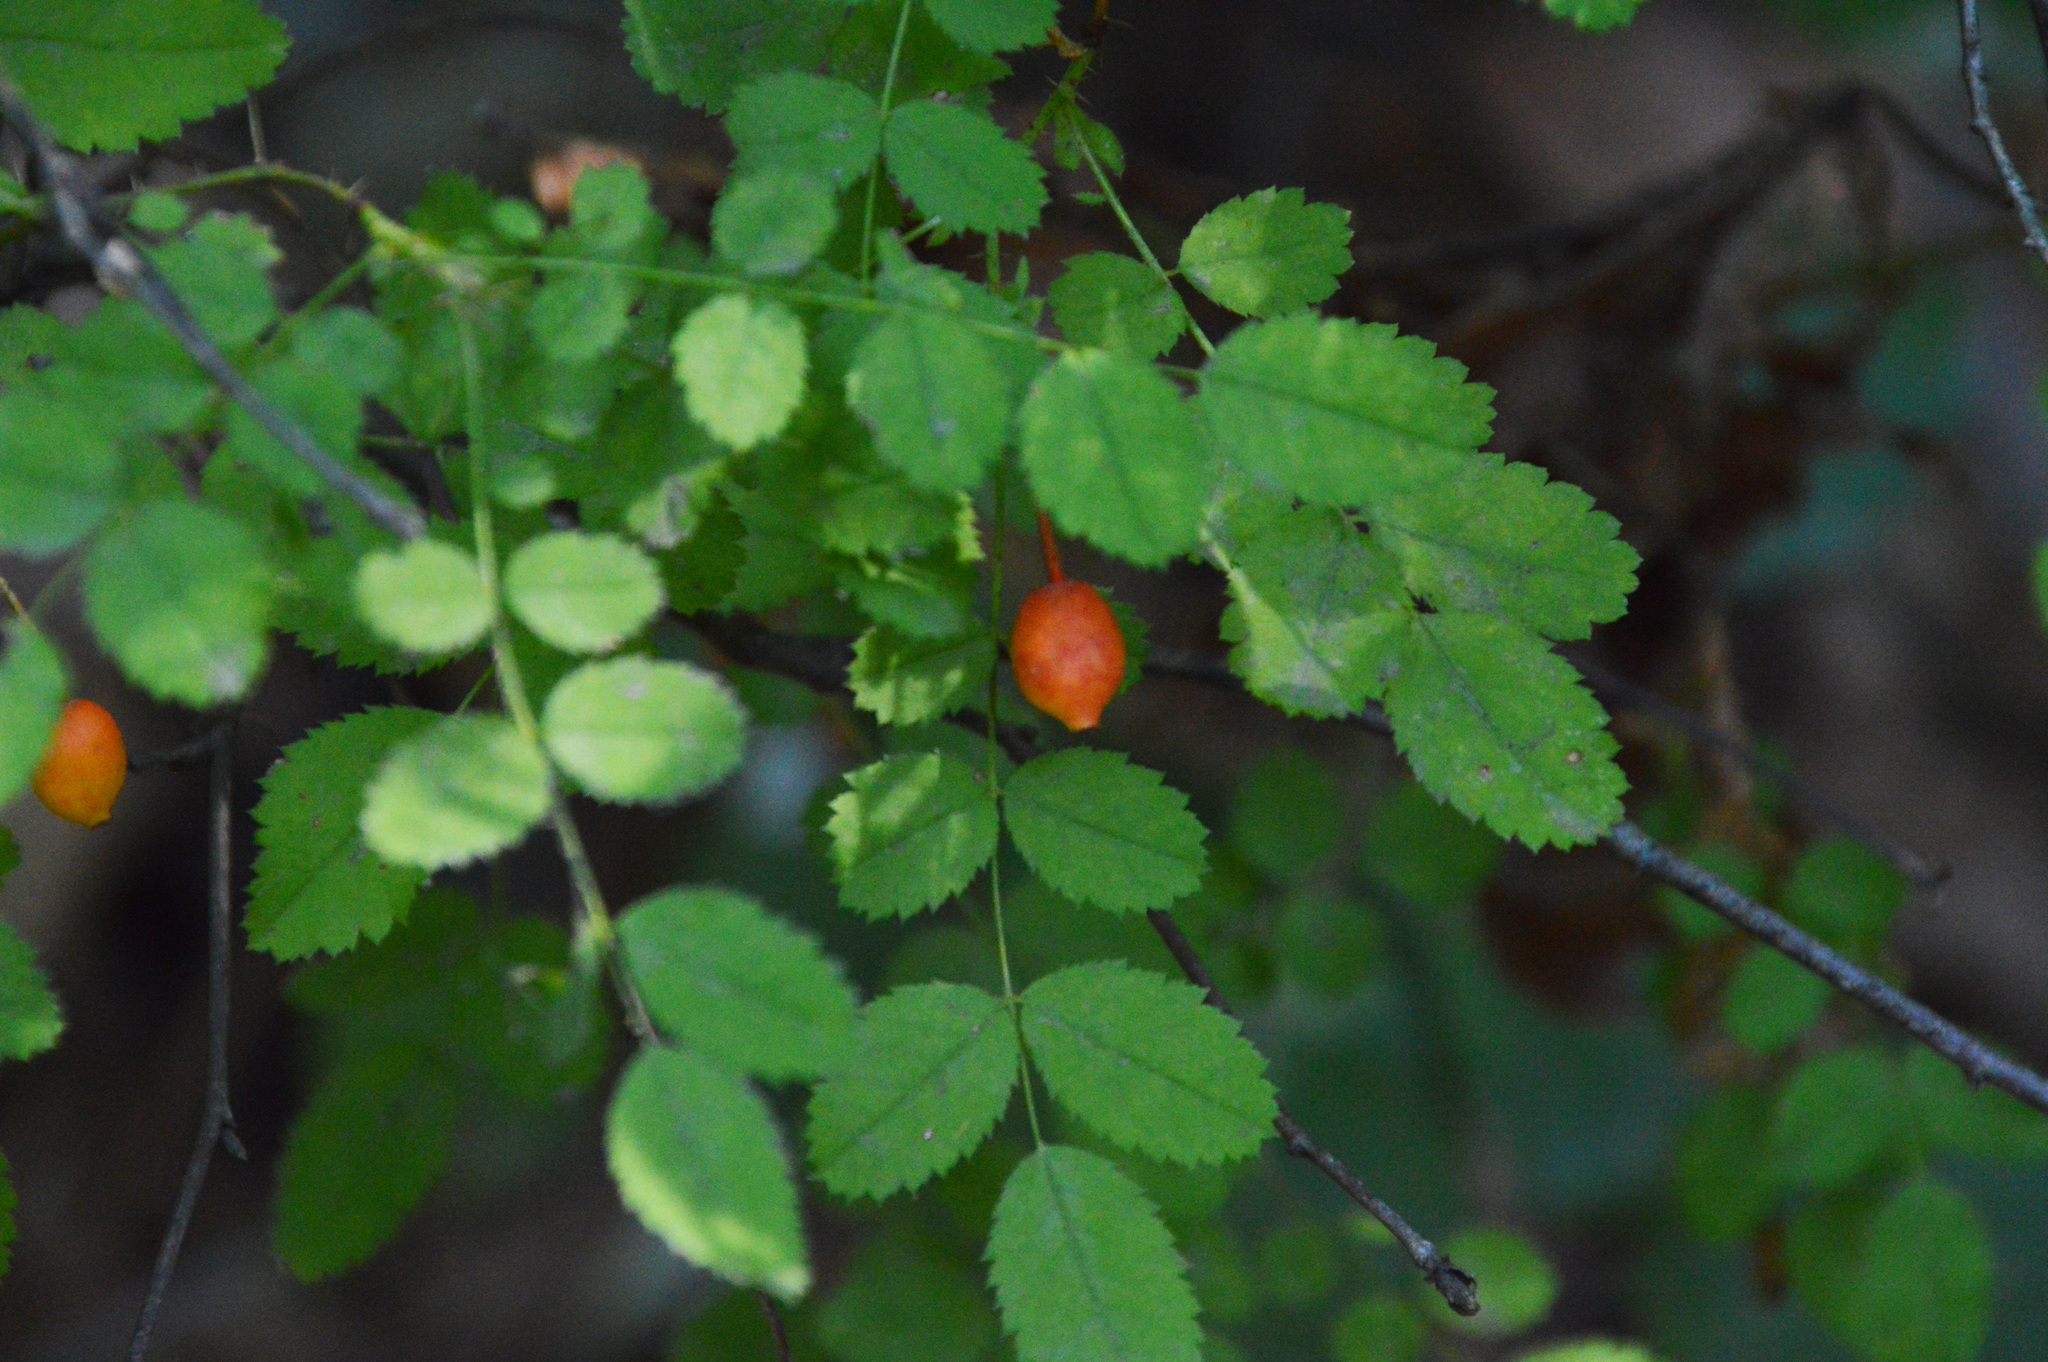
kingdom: Plantae
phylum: Tracheophyta
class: Magnoliopsida
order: Rosales
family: Rosaceae
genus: Rosa
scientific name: Rosa gymnocarpa
